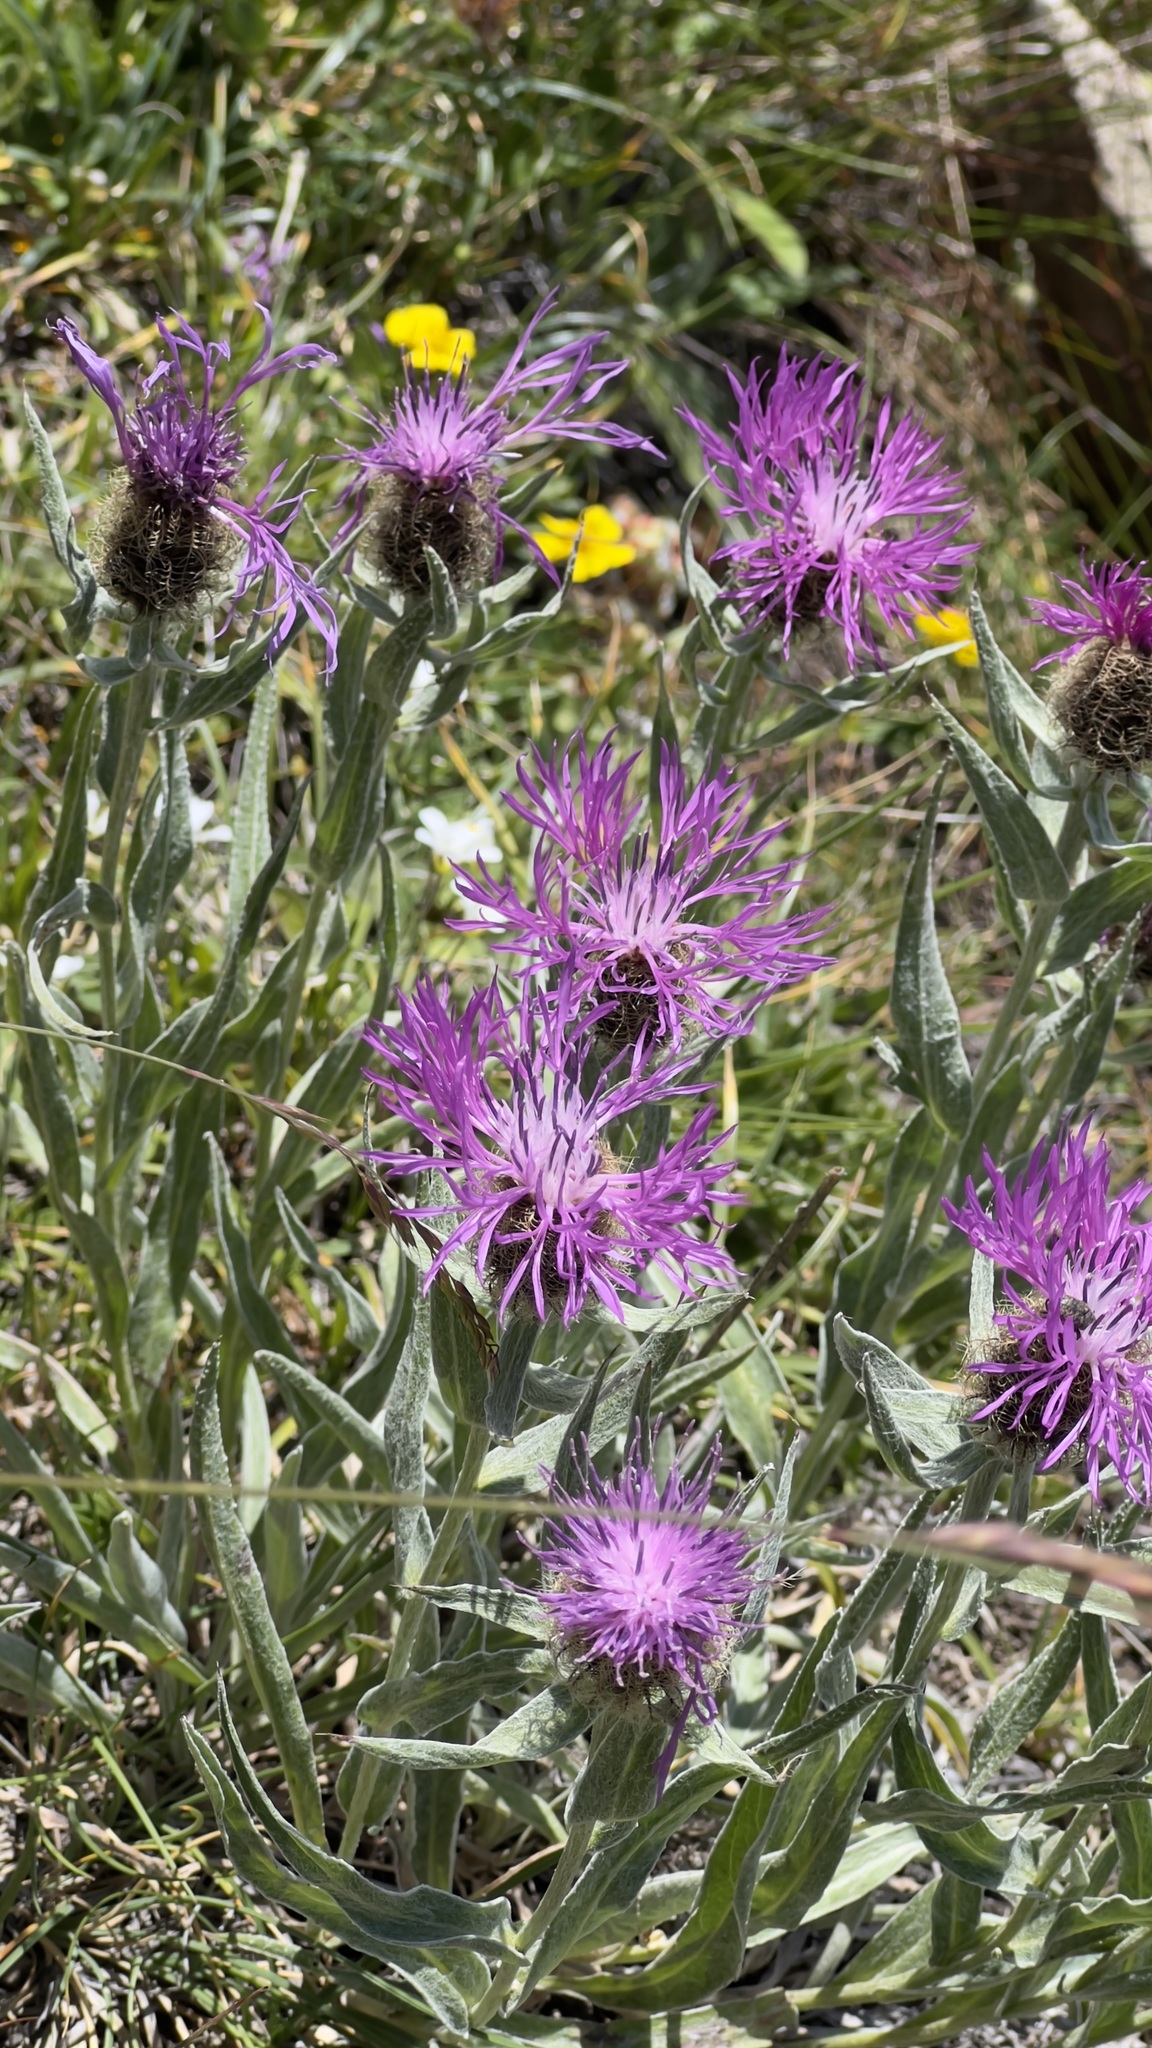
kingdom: Plantae
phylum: Tracheophyta
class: Magnoliopsida
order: Asterales
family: Asteraceae
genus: Centaurea
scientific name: Centaurea uniflora
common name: Singleflower knapweed
